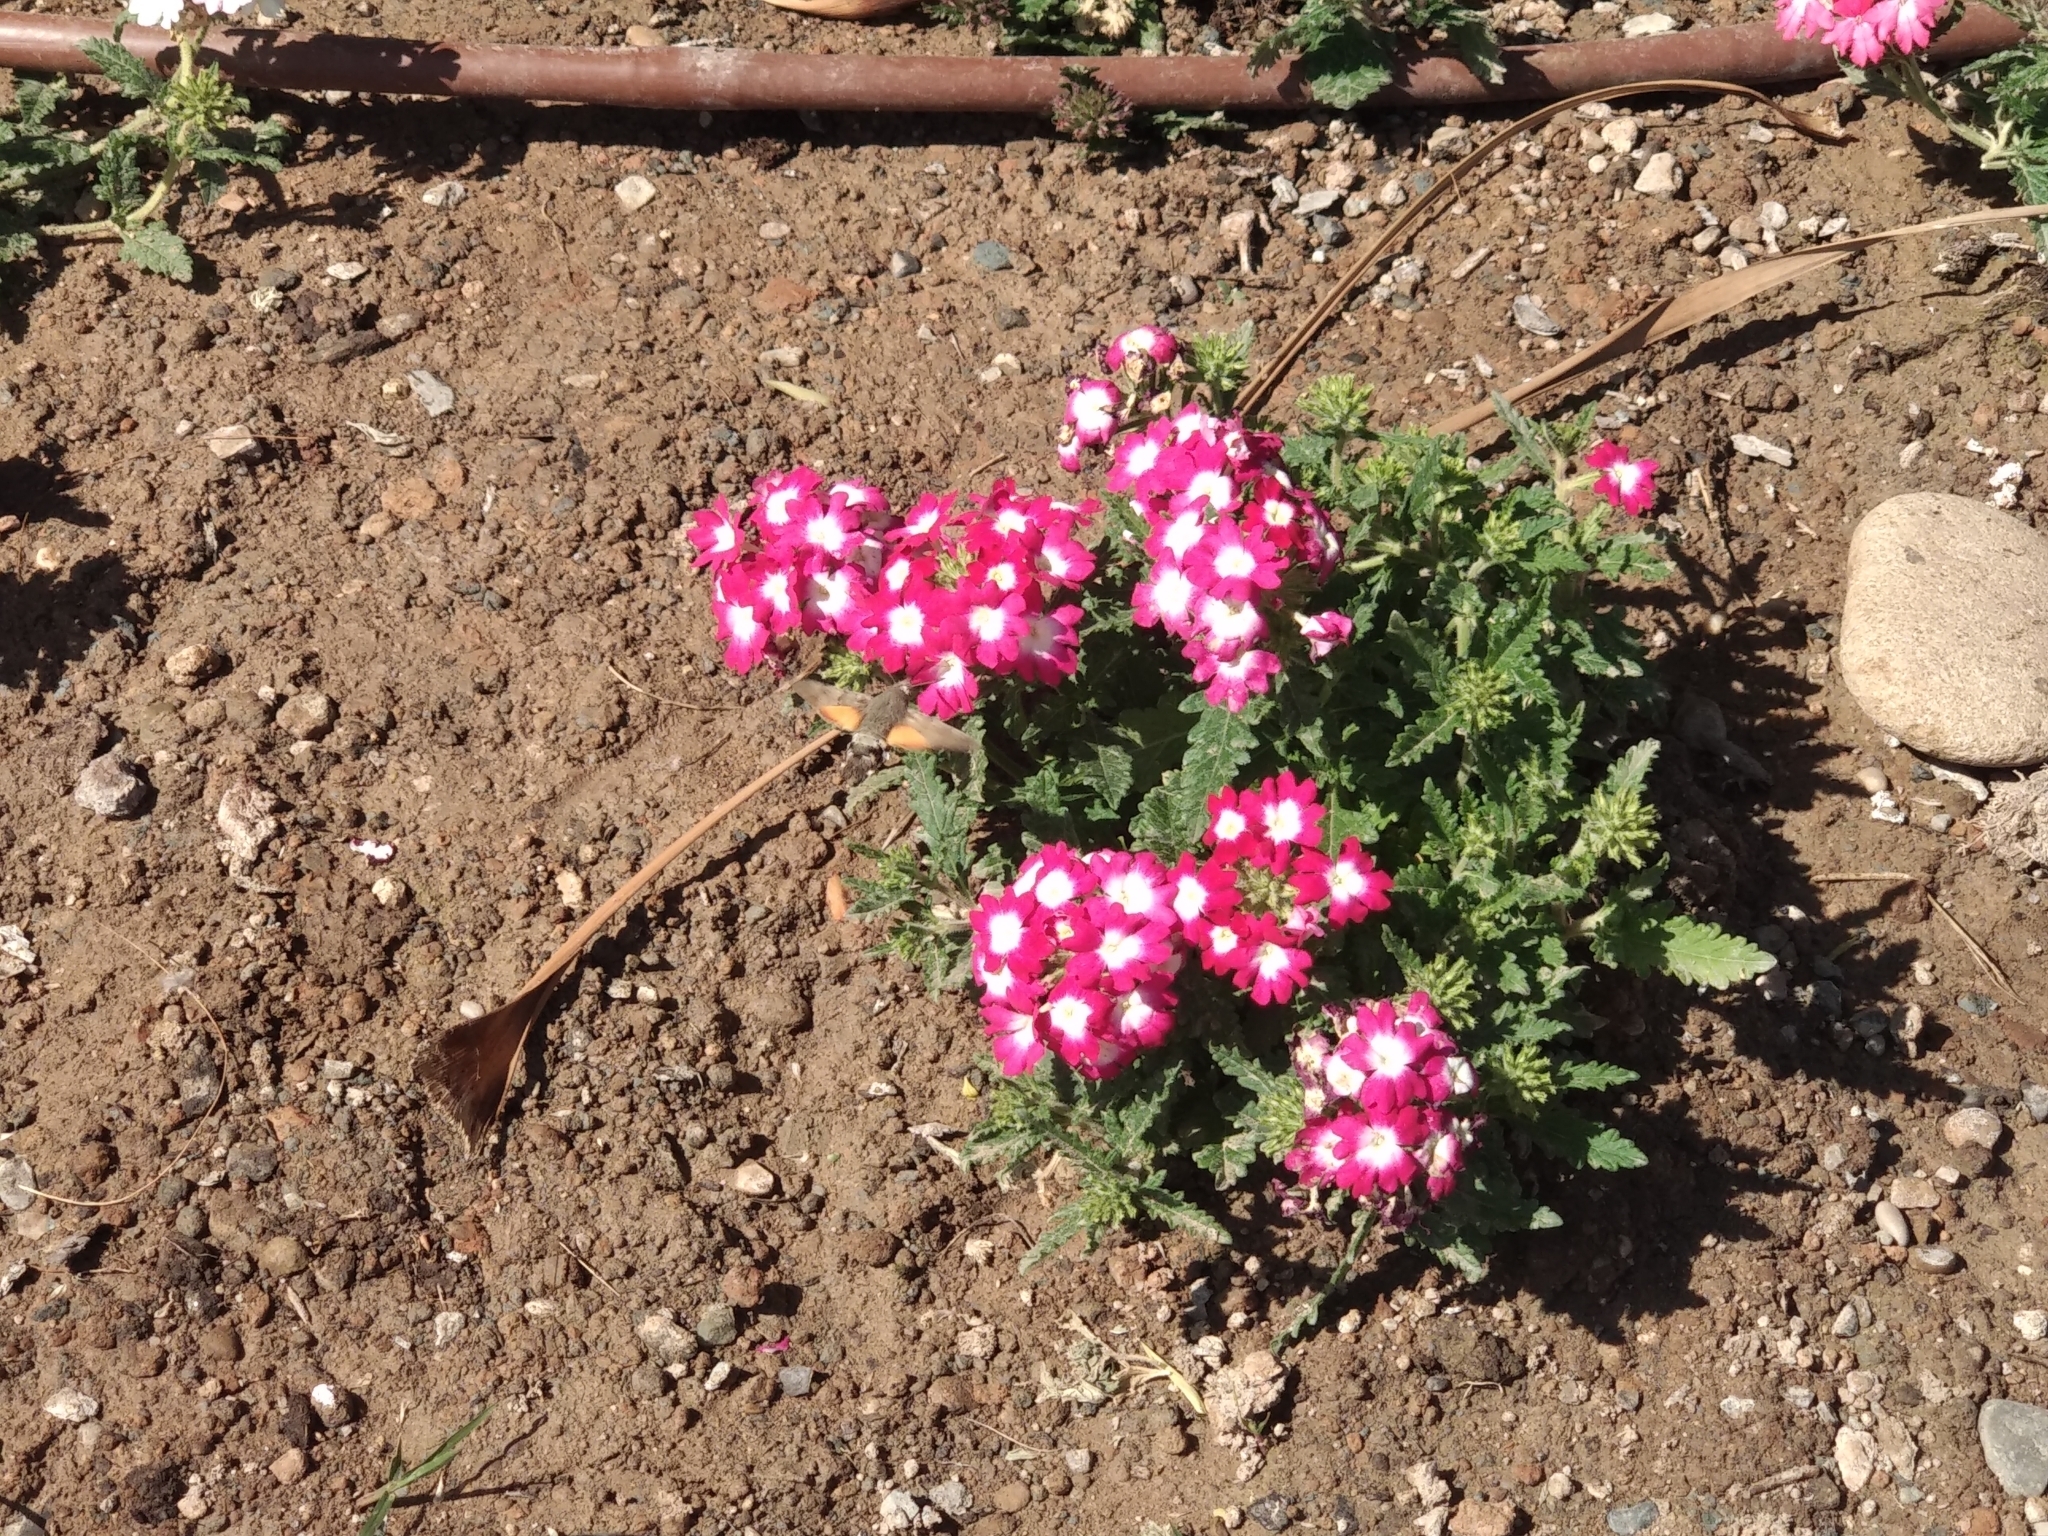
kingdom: Animalia
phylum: Arthropoda
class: Insecta
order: Lepidoptera
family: Sphingidae
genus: Macroglossum
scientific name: Macroglossum stellatarum
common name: Humming-bird hawk-moth
